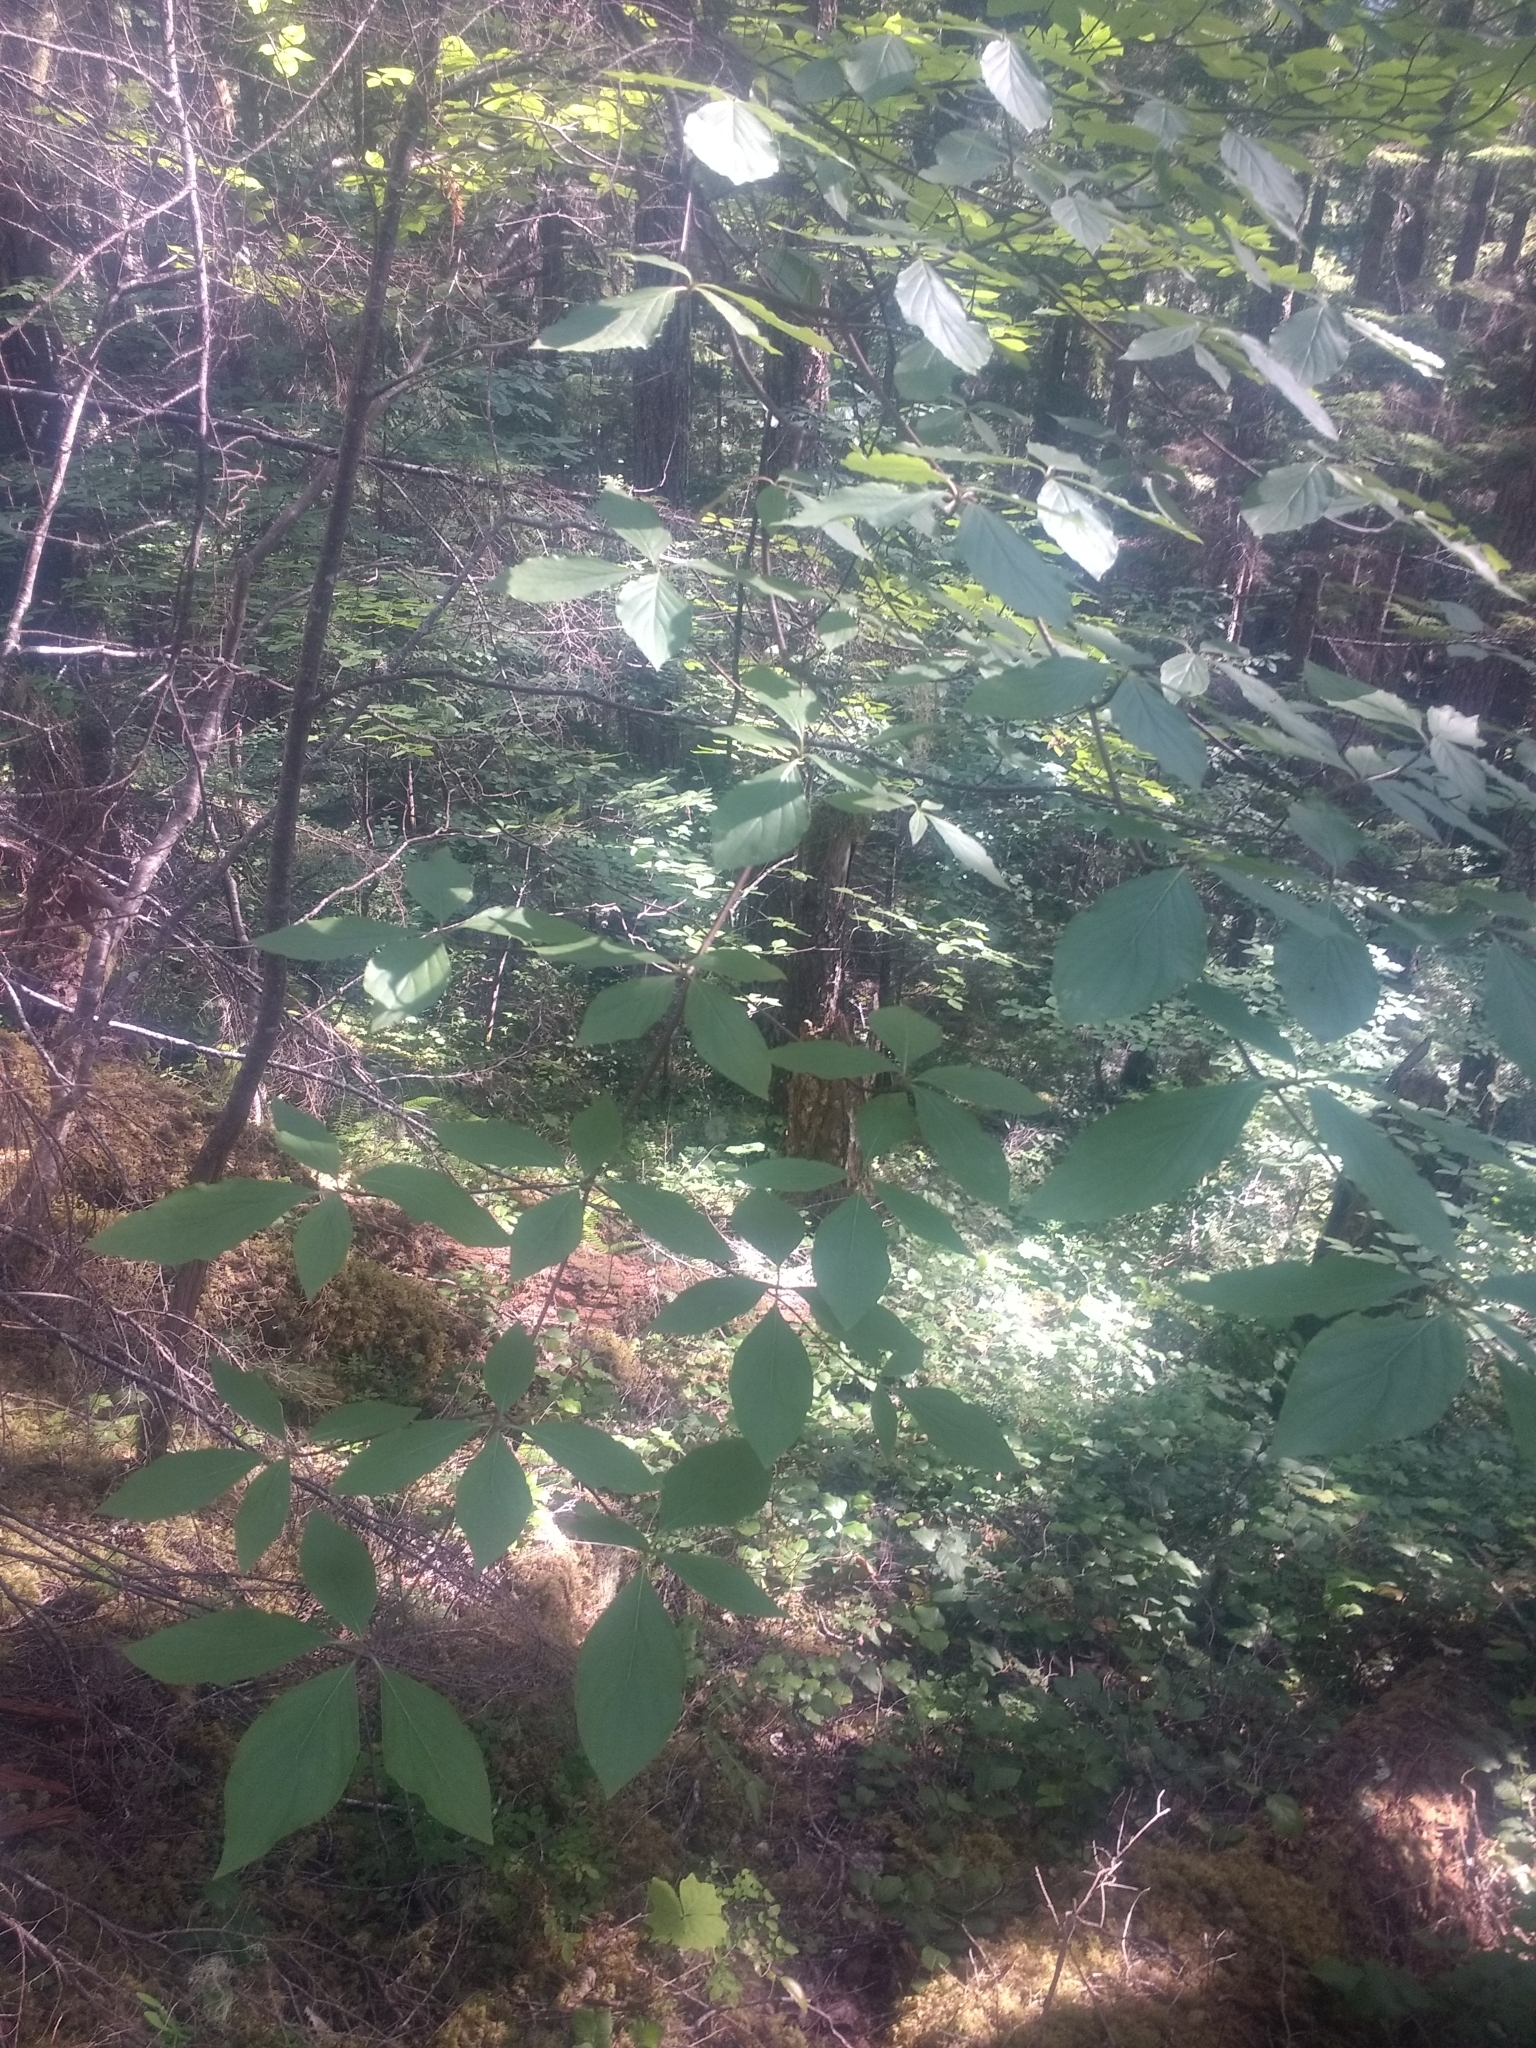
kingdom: Plantae
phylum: Tracheophyta
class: Magnoliopsida
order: Cornales
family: Cornaceae
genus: Cornus
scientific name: Cornus nuttallii
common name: Pacific dogwood
